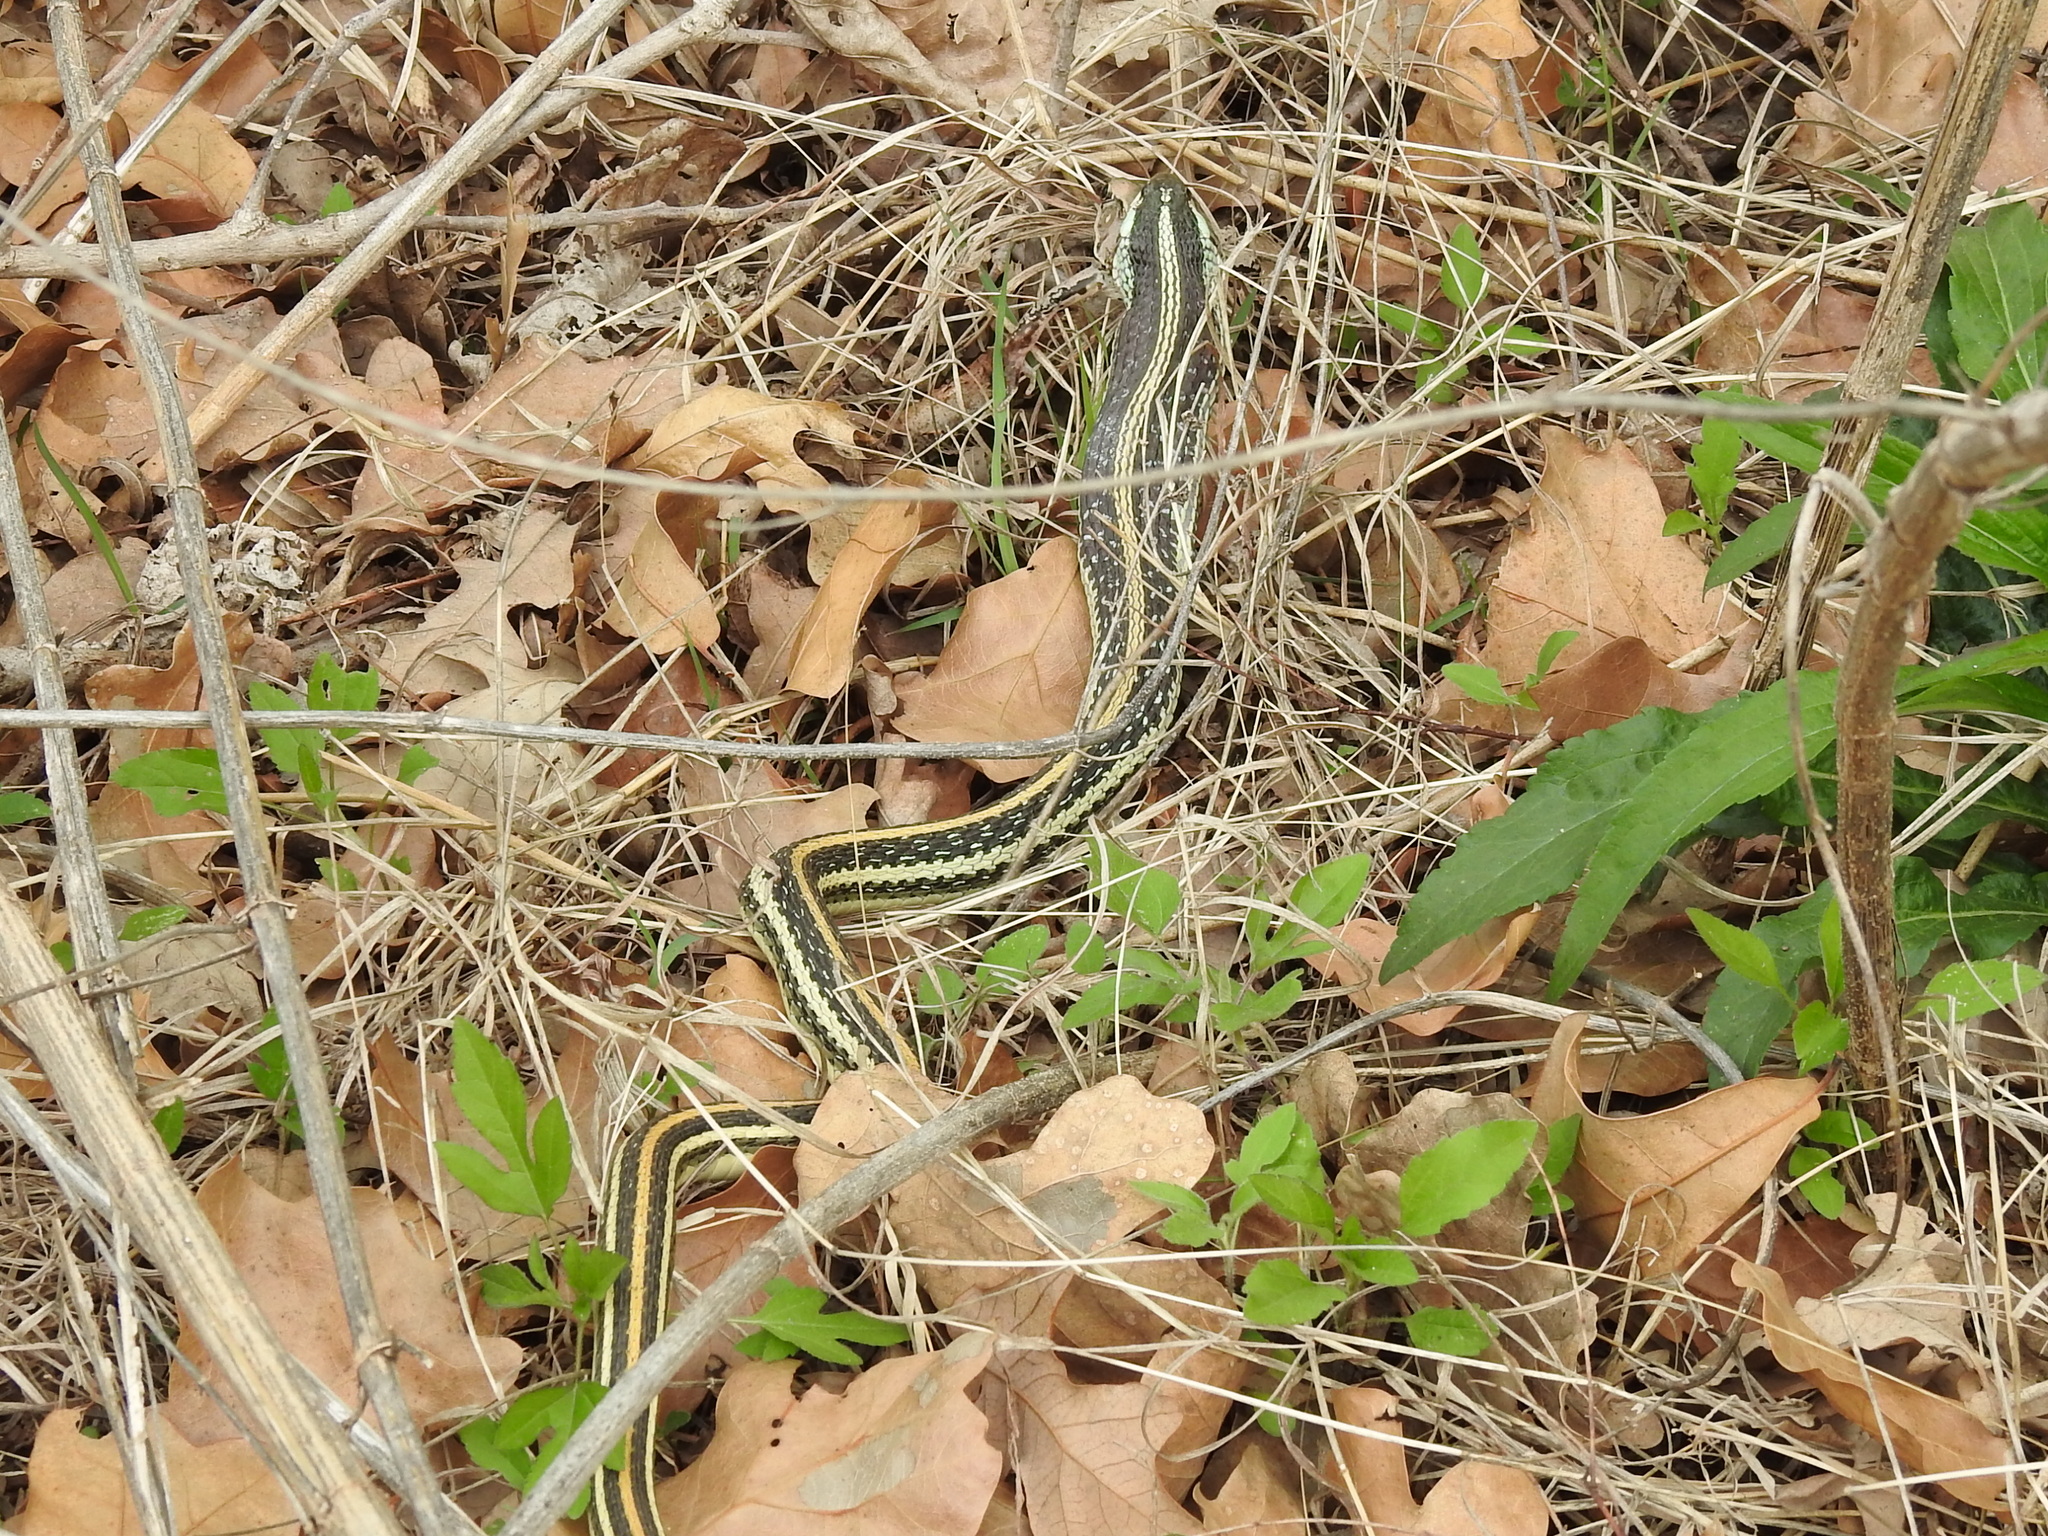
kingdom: Animalia
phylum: Chordata
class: Squamata
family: Colubridae
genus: Thamnophis
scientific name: Thamnophis proximus
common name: Western ribbon snake
